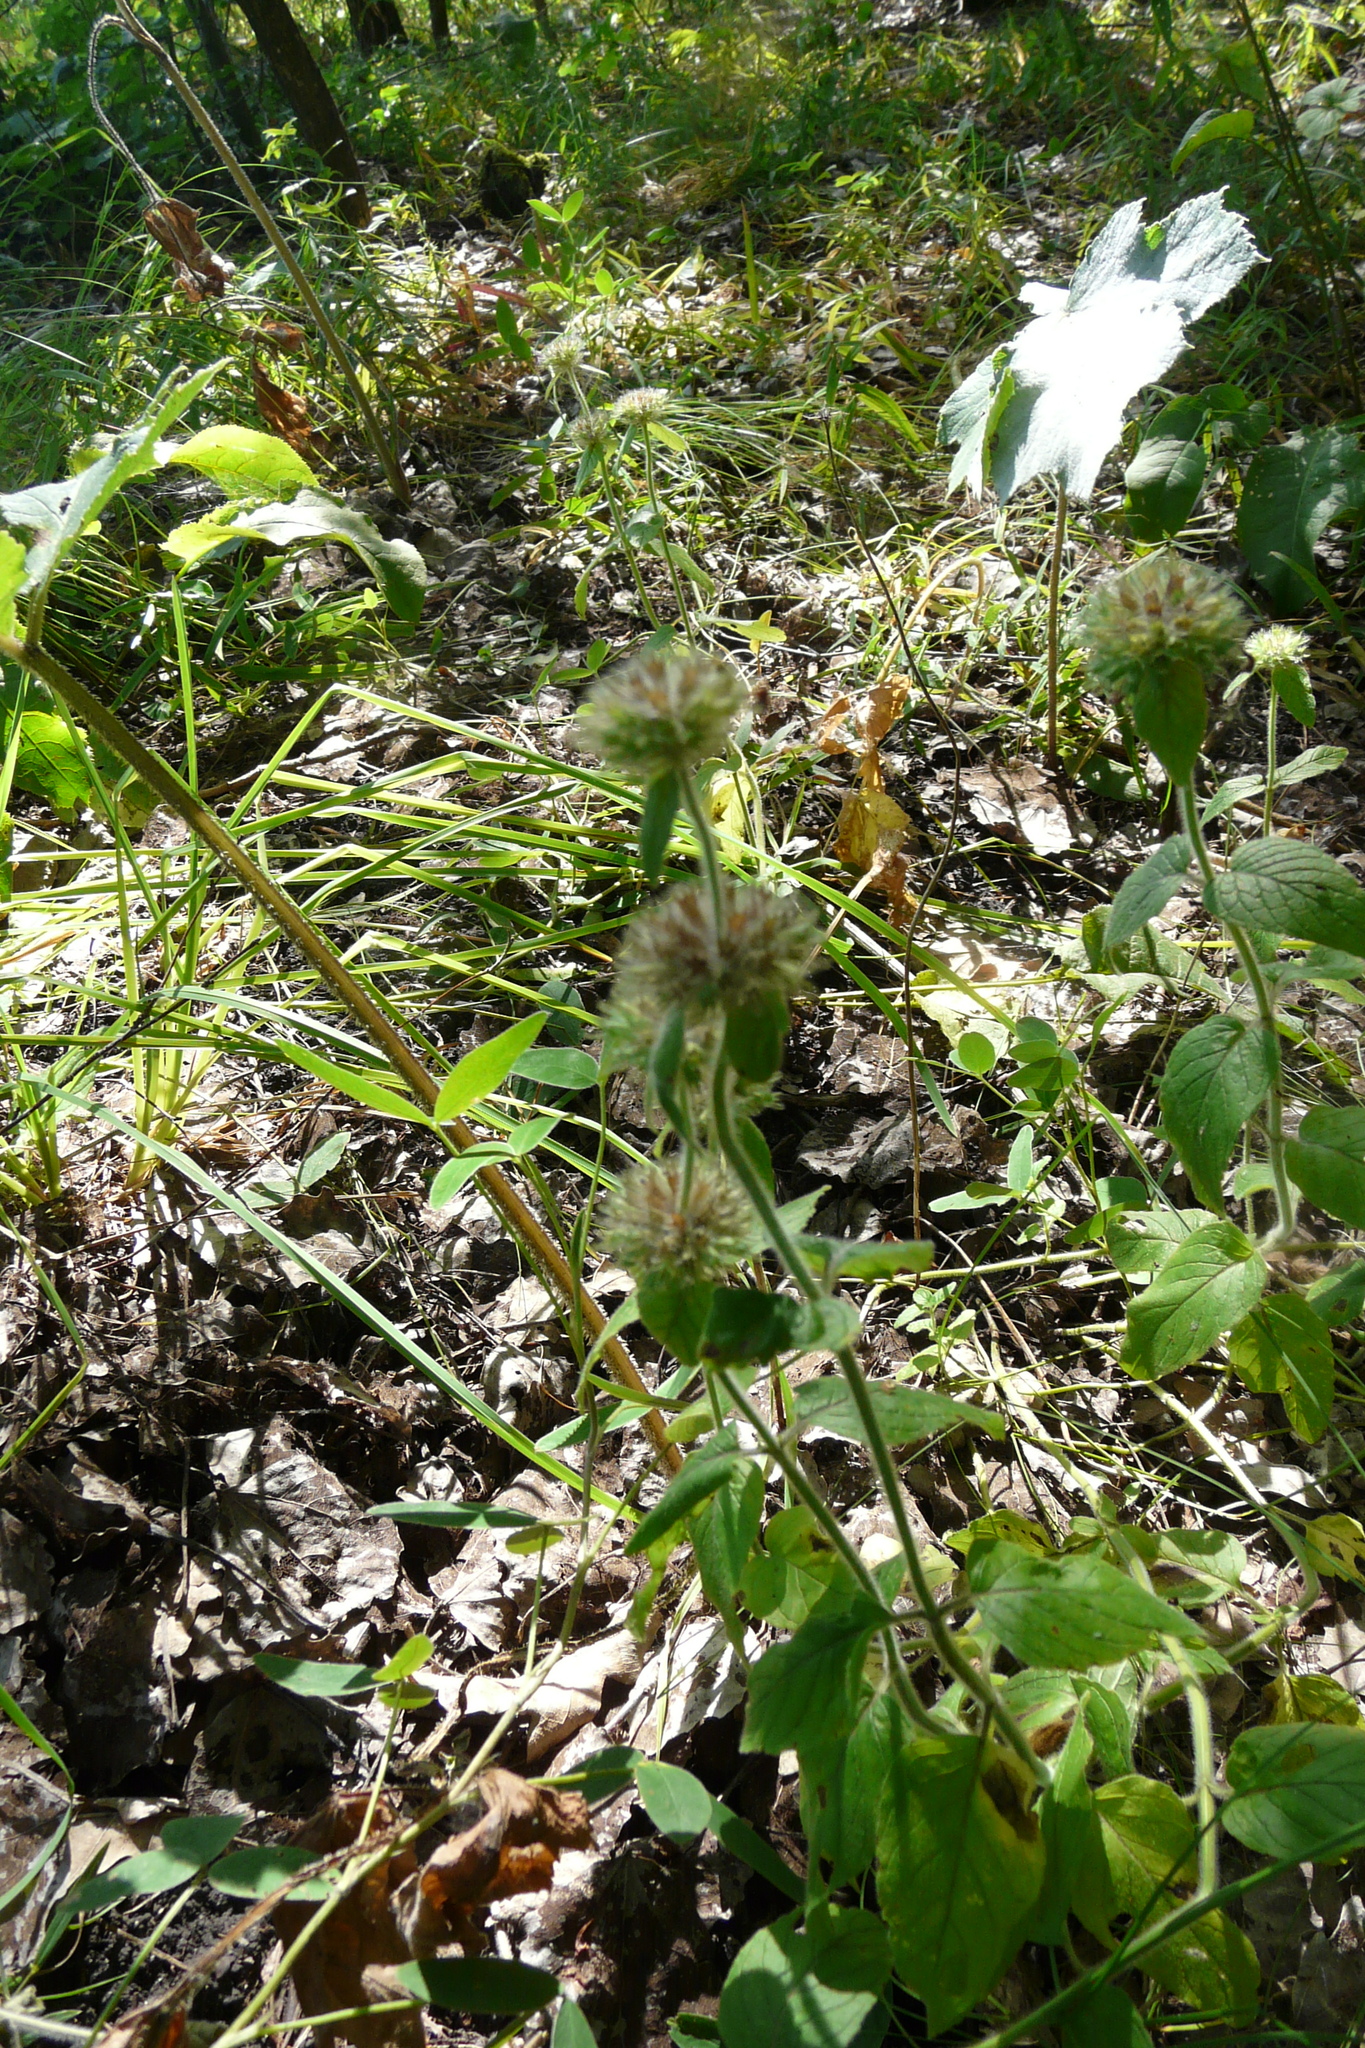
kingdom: Plantae
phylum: Tracheophyta
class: Magnoliopsida
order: Lamiales
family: Lamiaceae
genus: Clinopodium
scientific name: Clinopodium vulgare
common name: Wild basil
